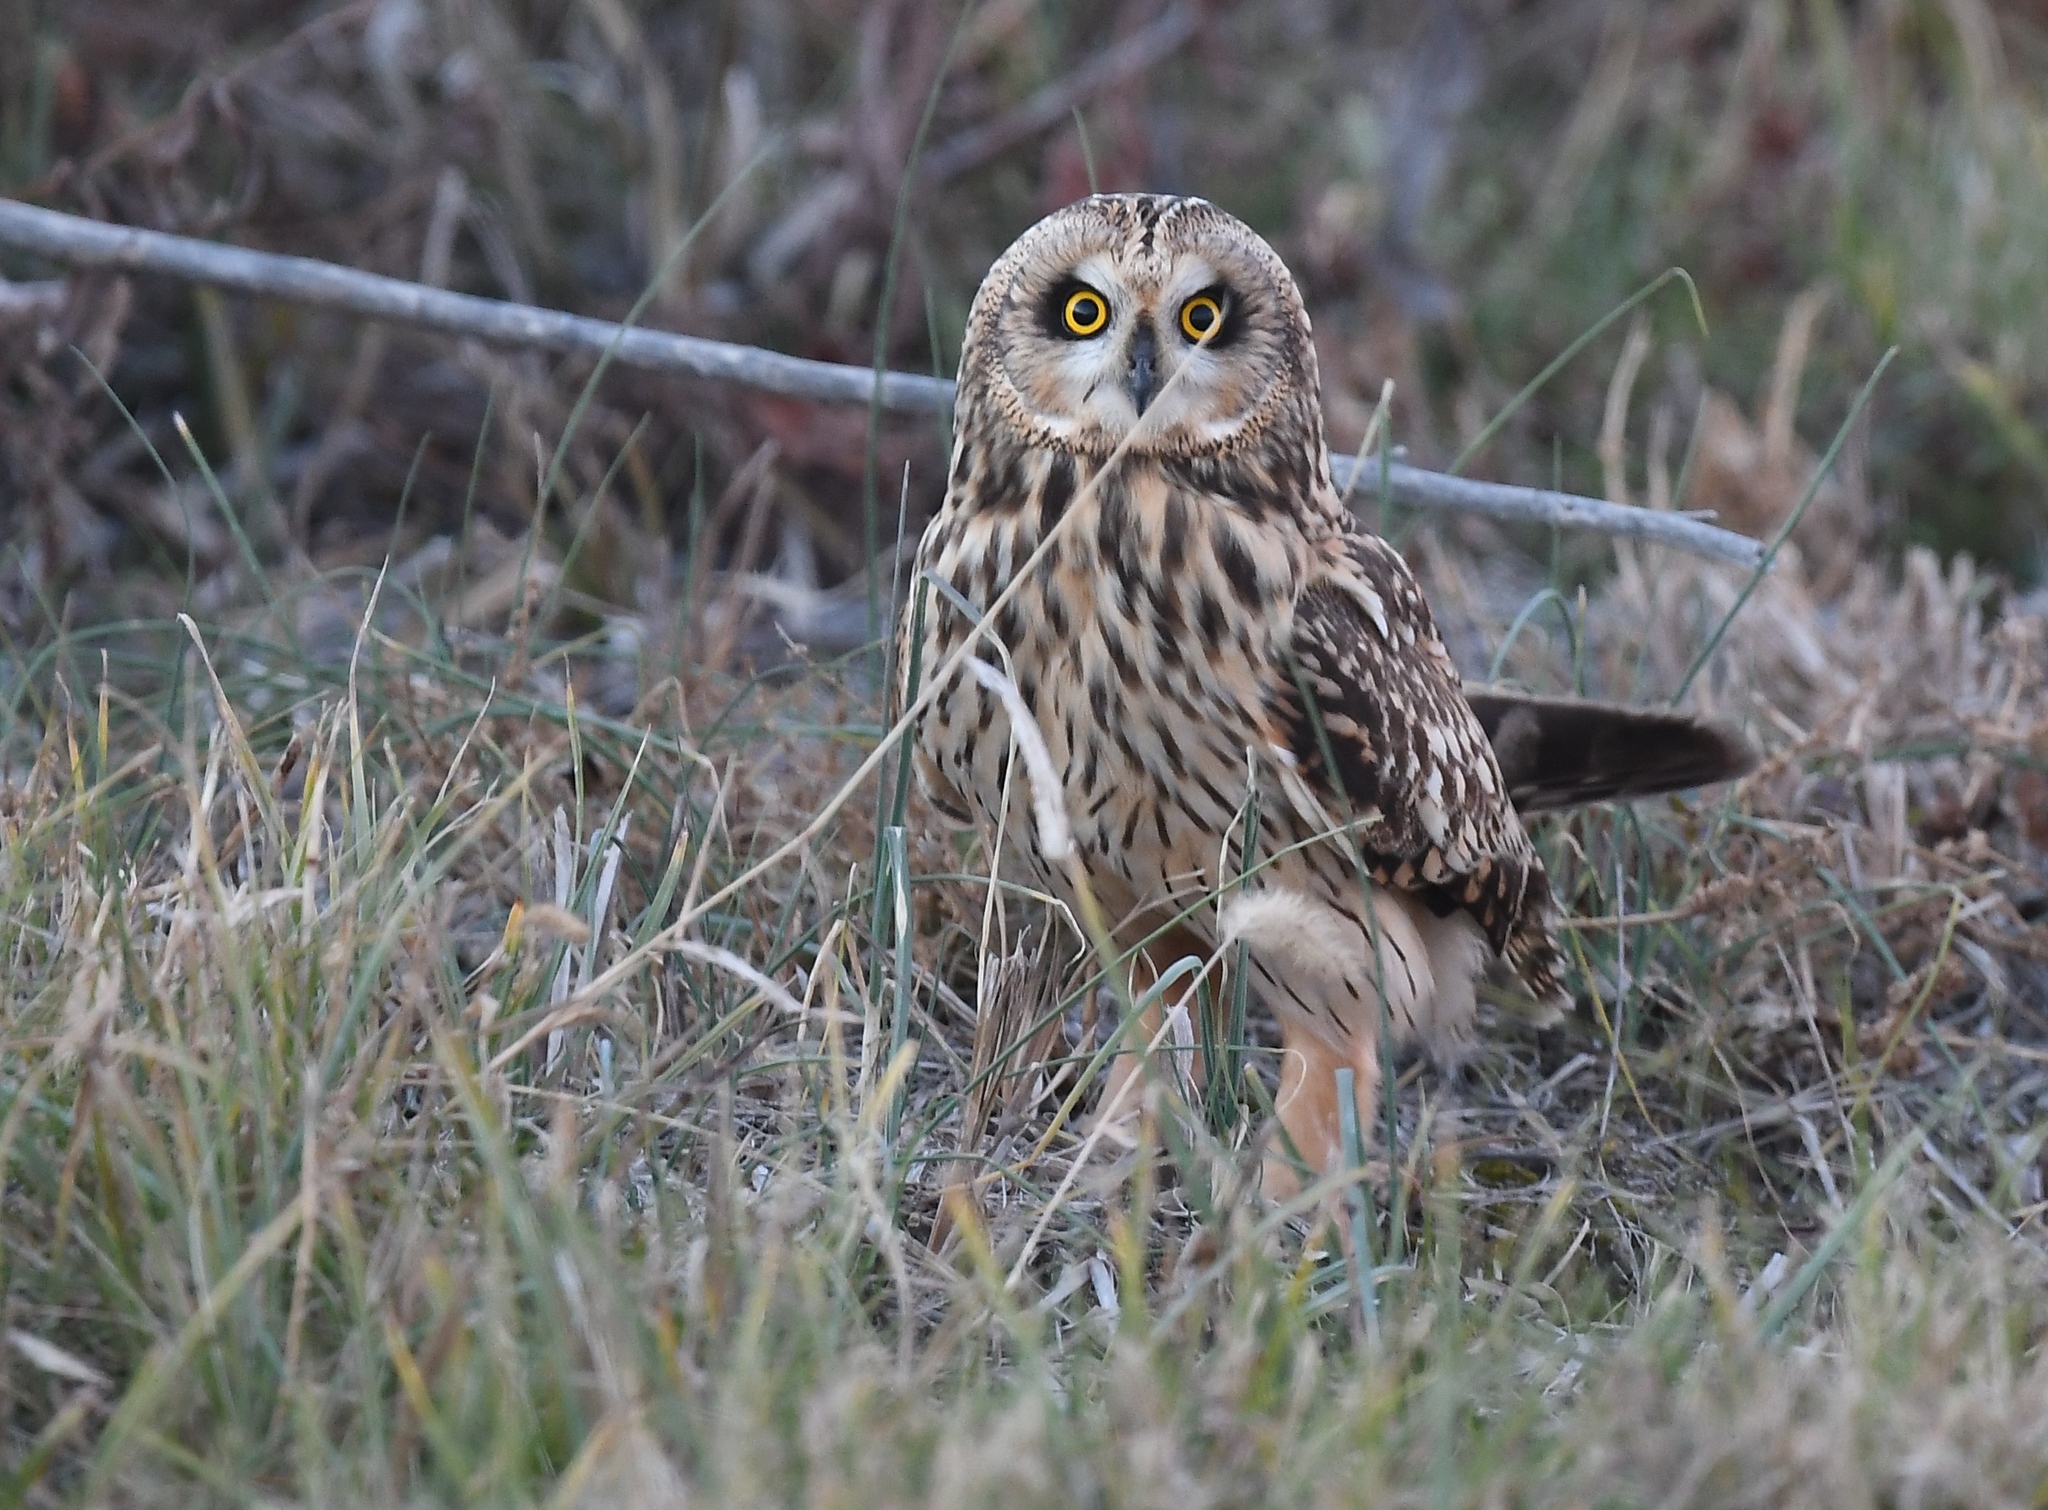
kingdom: Animalia
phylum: Chordata
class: Aves
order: Strigiformes
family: Strigidae
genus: Asio
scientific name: Asio flammeus
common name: Short-eared owl
